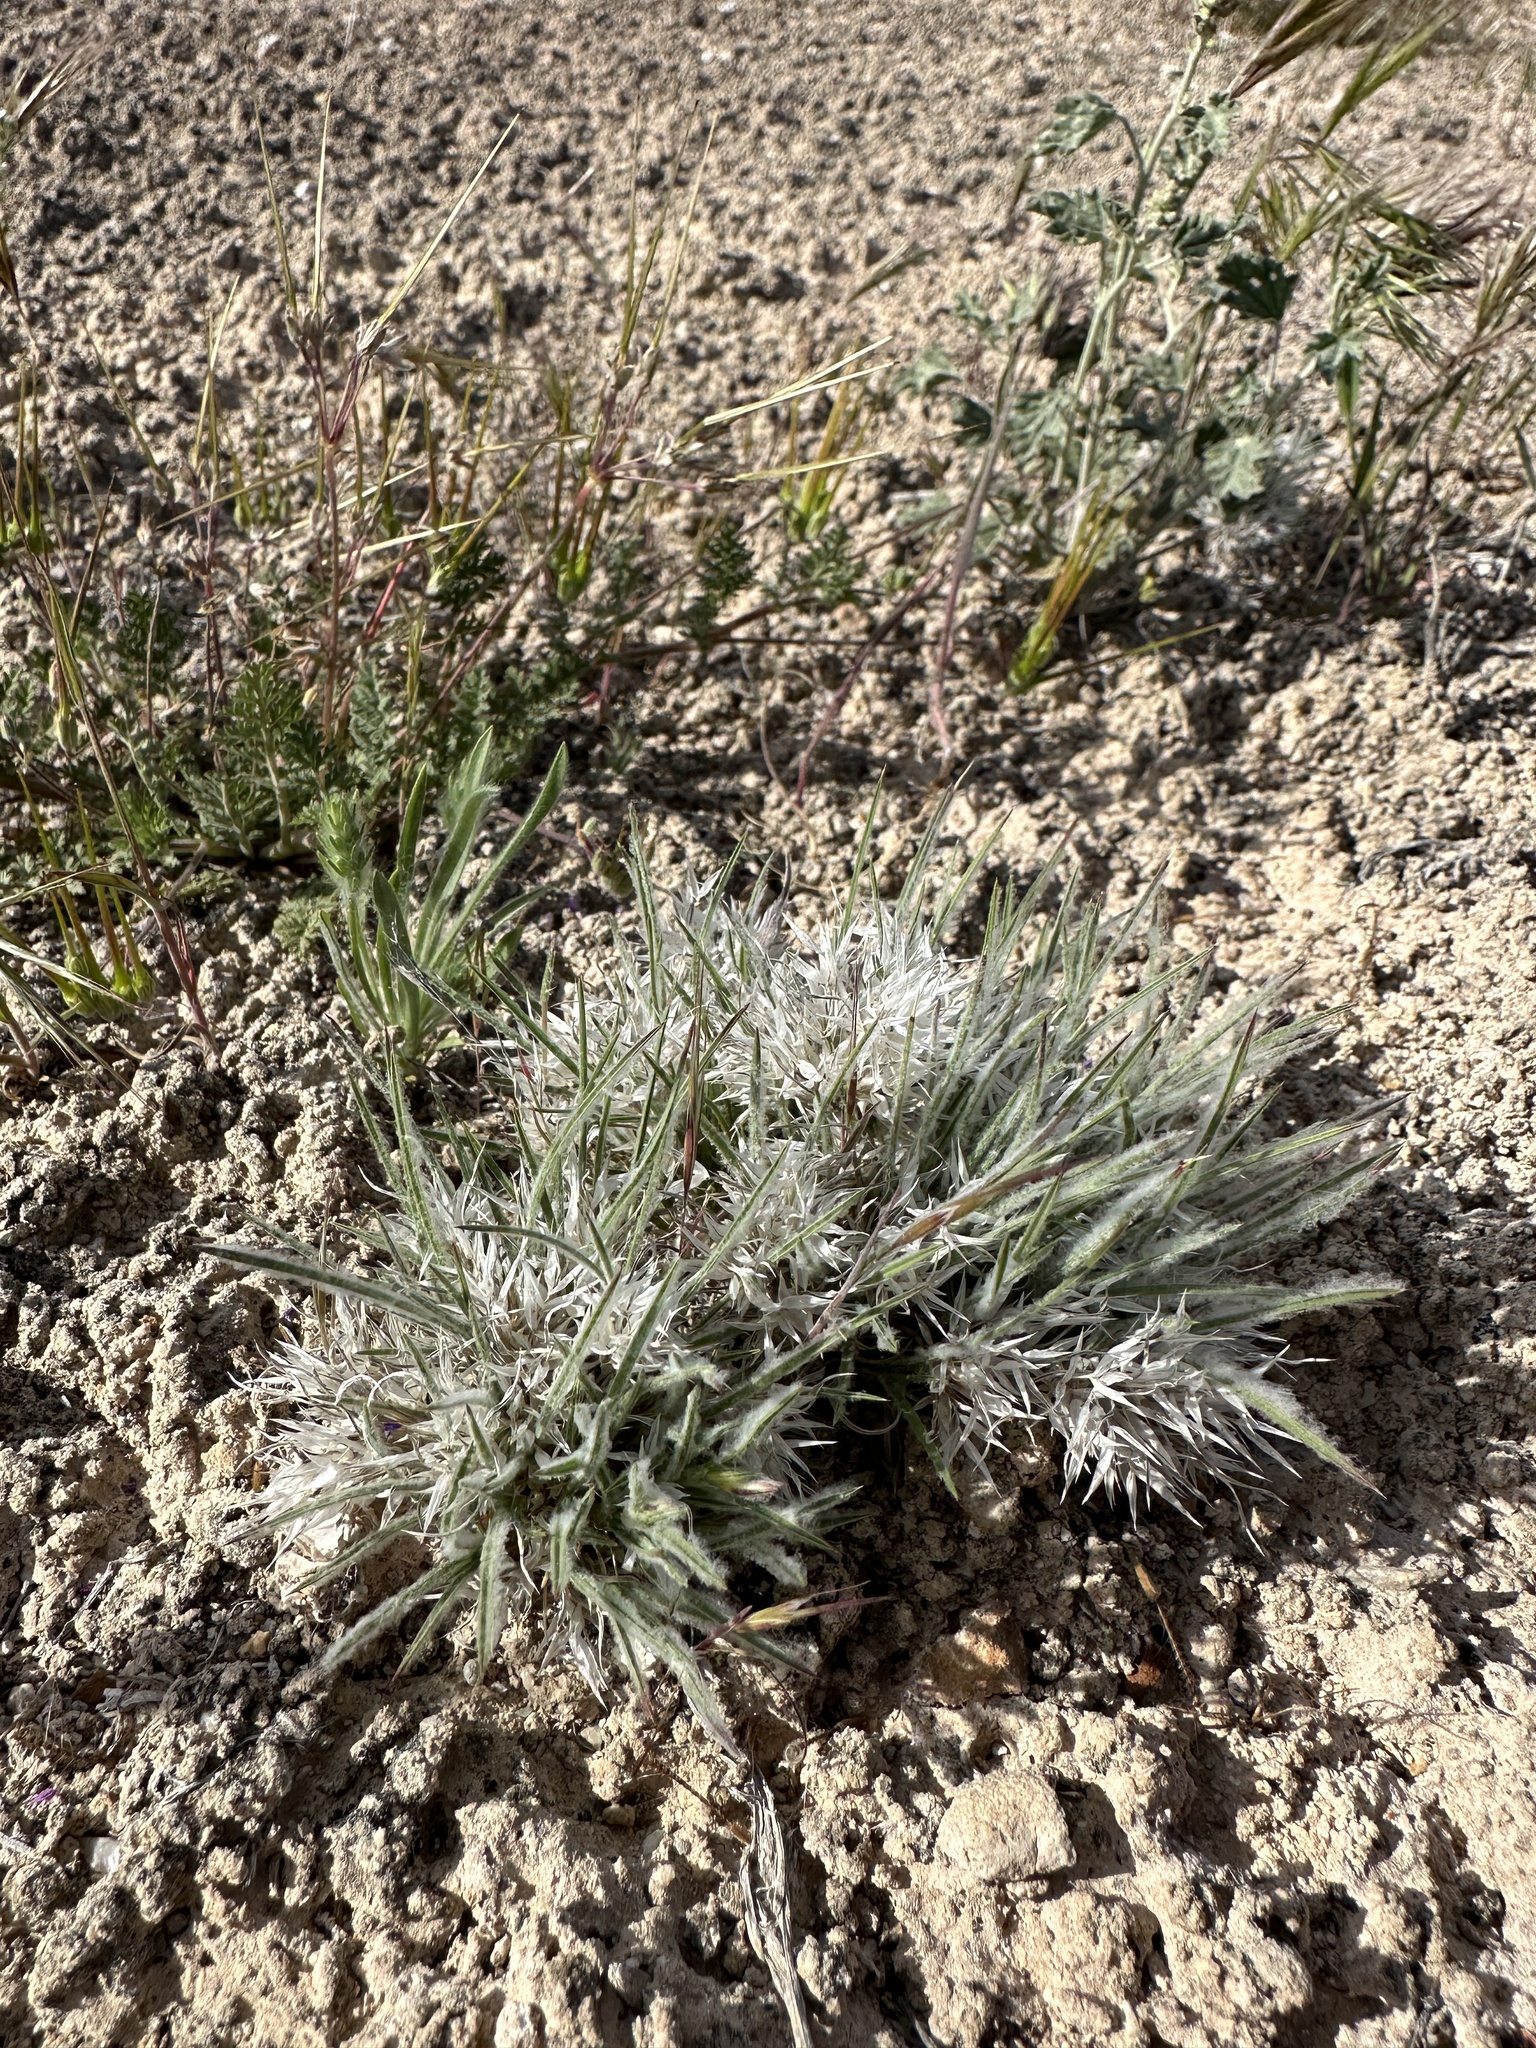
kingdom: Plantae
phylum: Tracheophyta
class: Liliopsida
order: Poales
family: Poaceae
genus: Dasyochloa
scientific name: Dasyochloa pulchella
